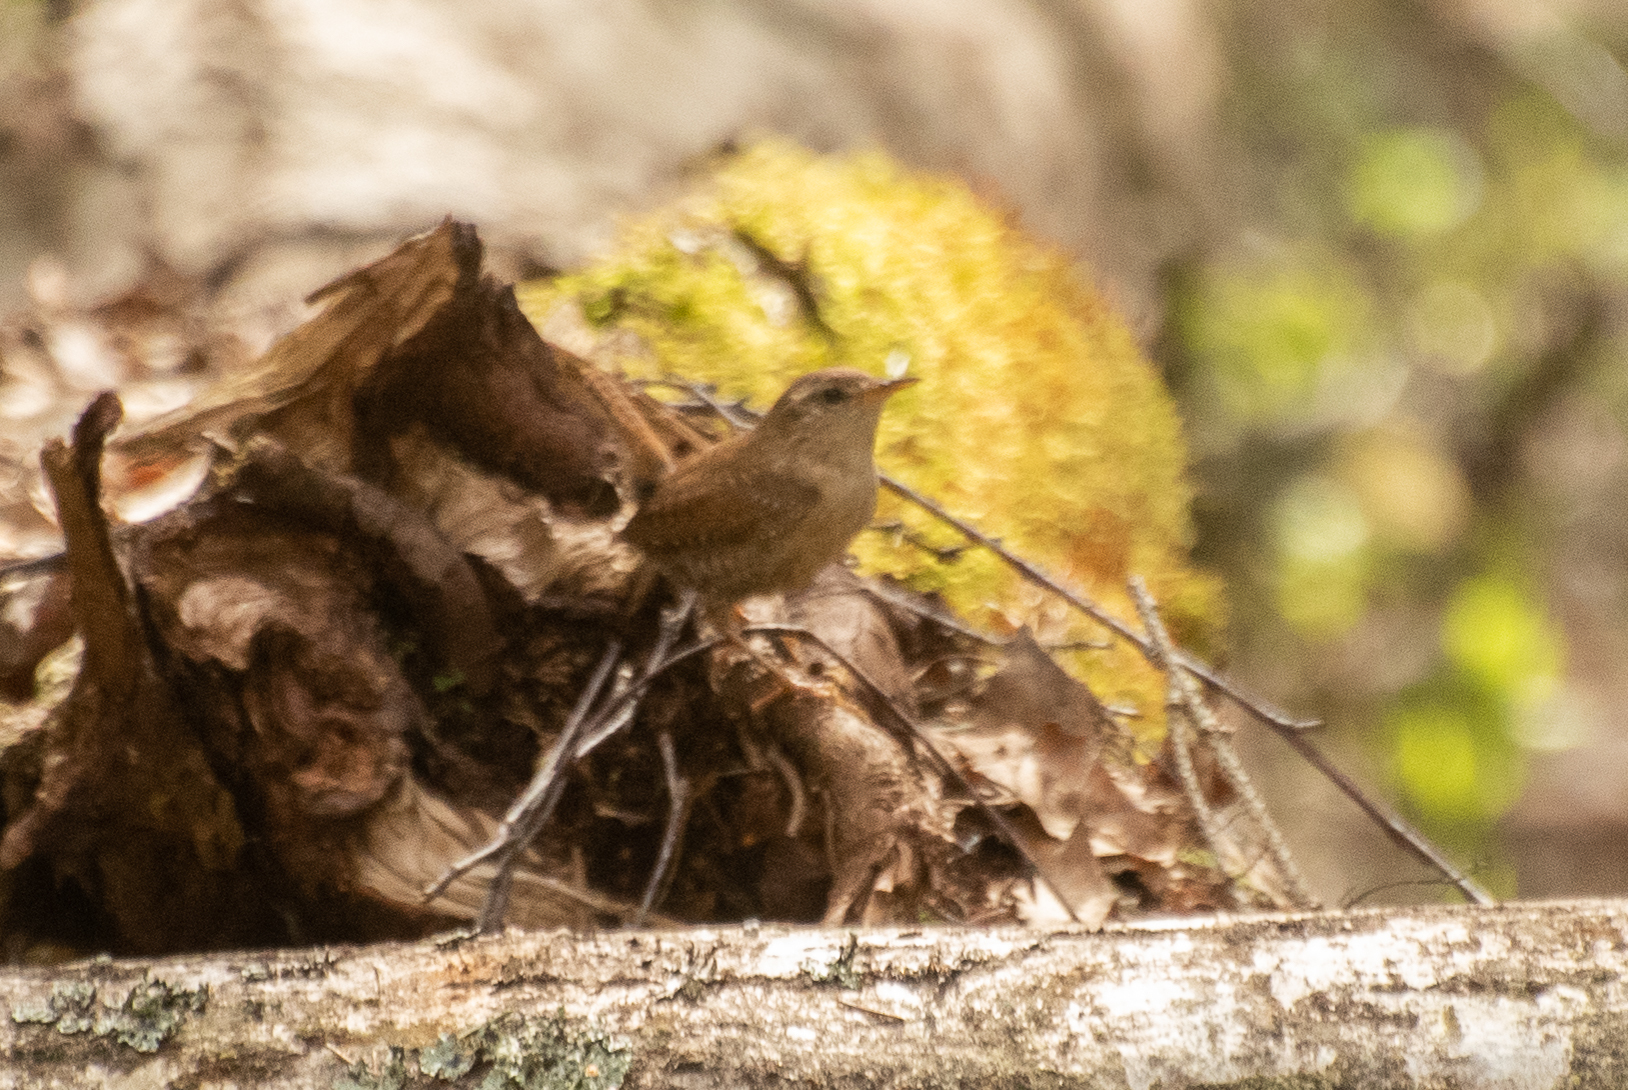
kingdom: Animalia
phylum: Chordata
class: Aves
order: Passeriformes
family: Troglodytidae
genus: Troglodytes
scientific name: Troglodytes troglodytes
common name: Eurasian wren
